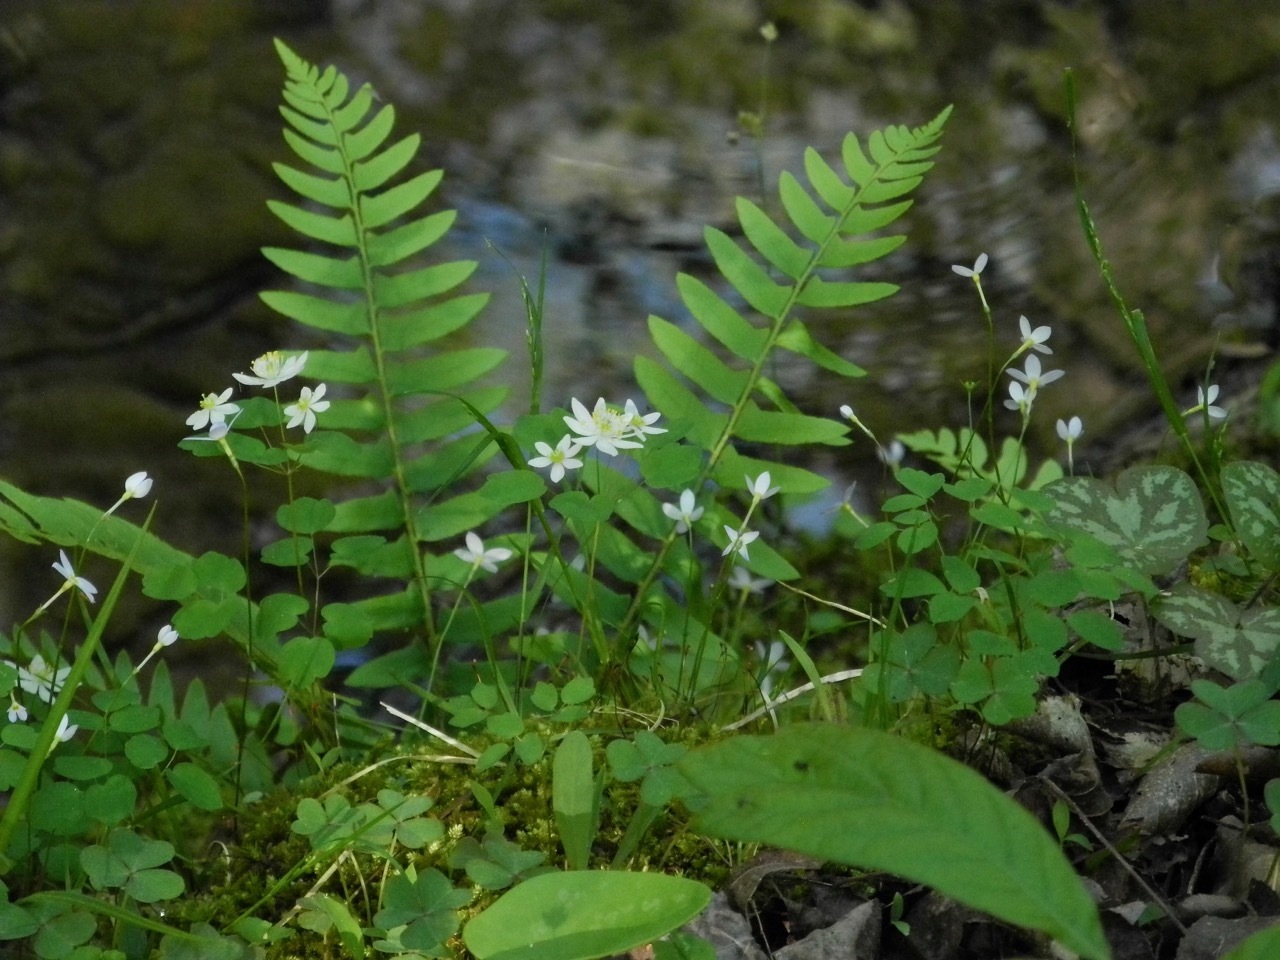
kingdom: Plantae
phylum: Tracheophyta
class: Polypodiopsida
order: Polypodiales
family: Dryopteridaceae
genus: Polystichum
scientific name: Polystichum acrostichoides
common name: Christmas fern
